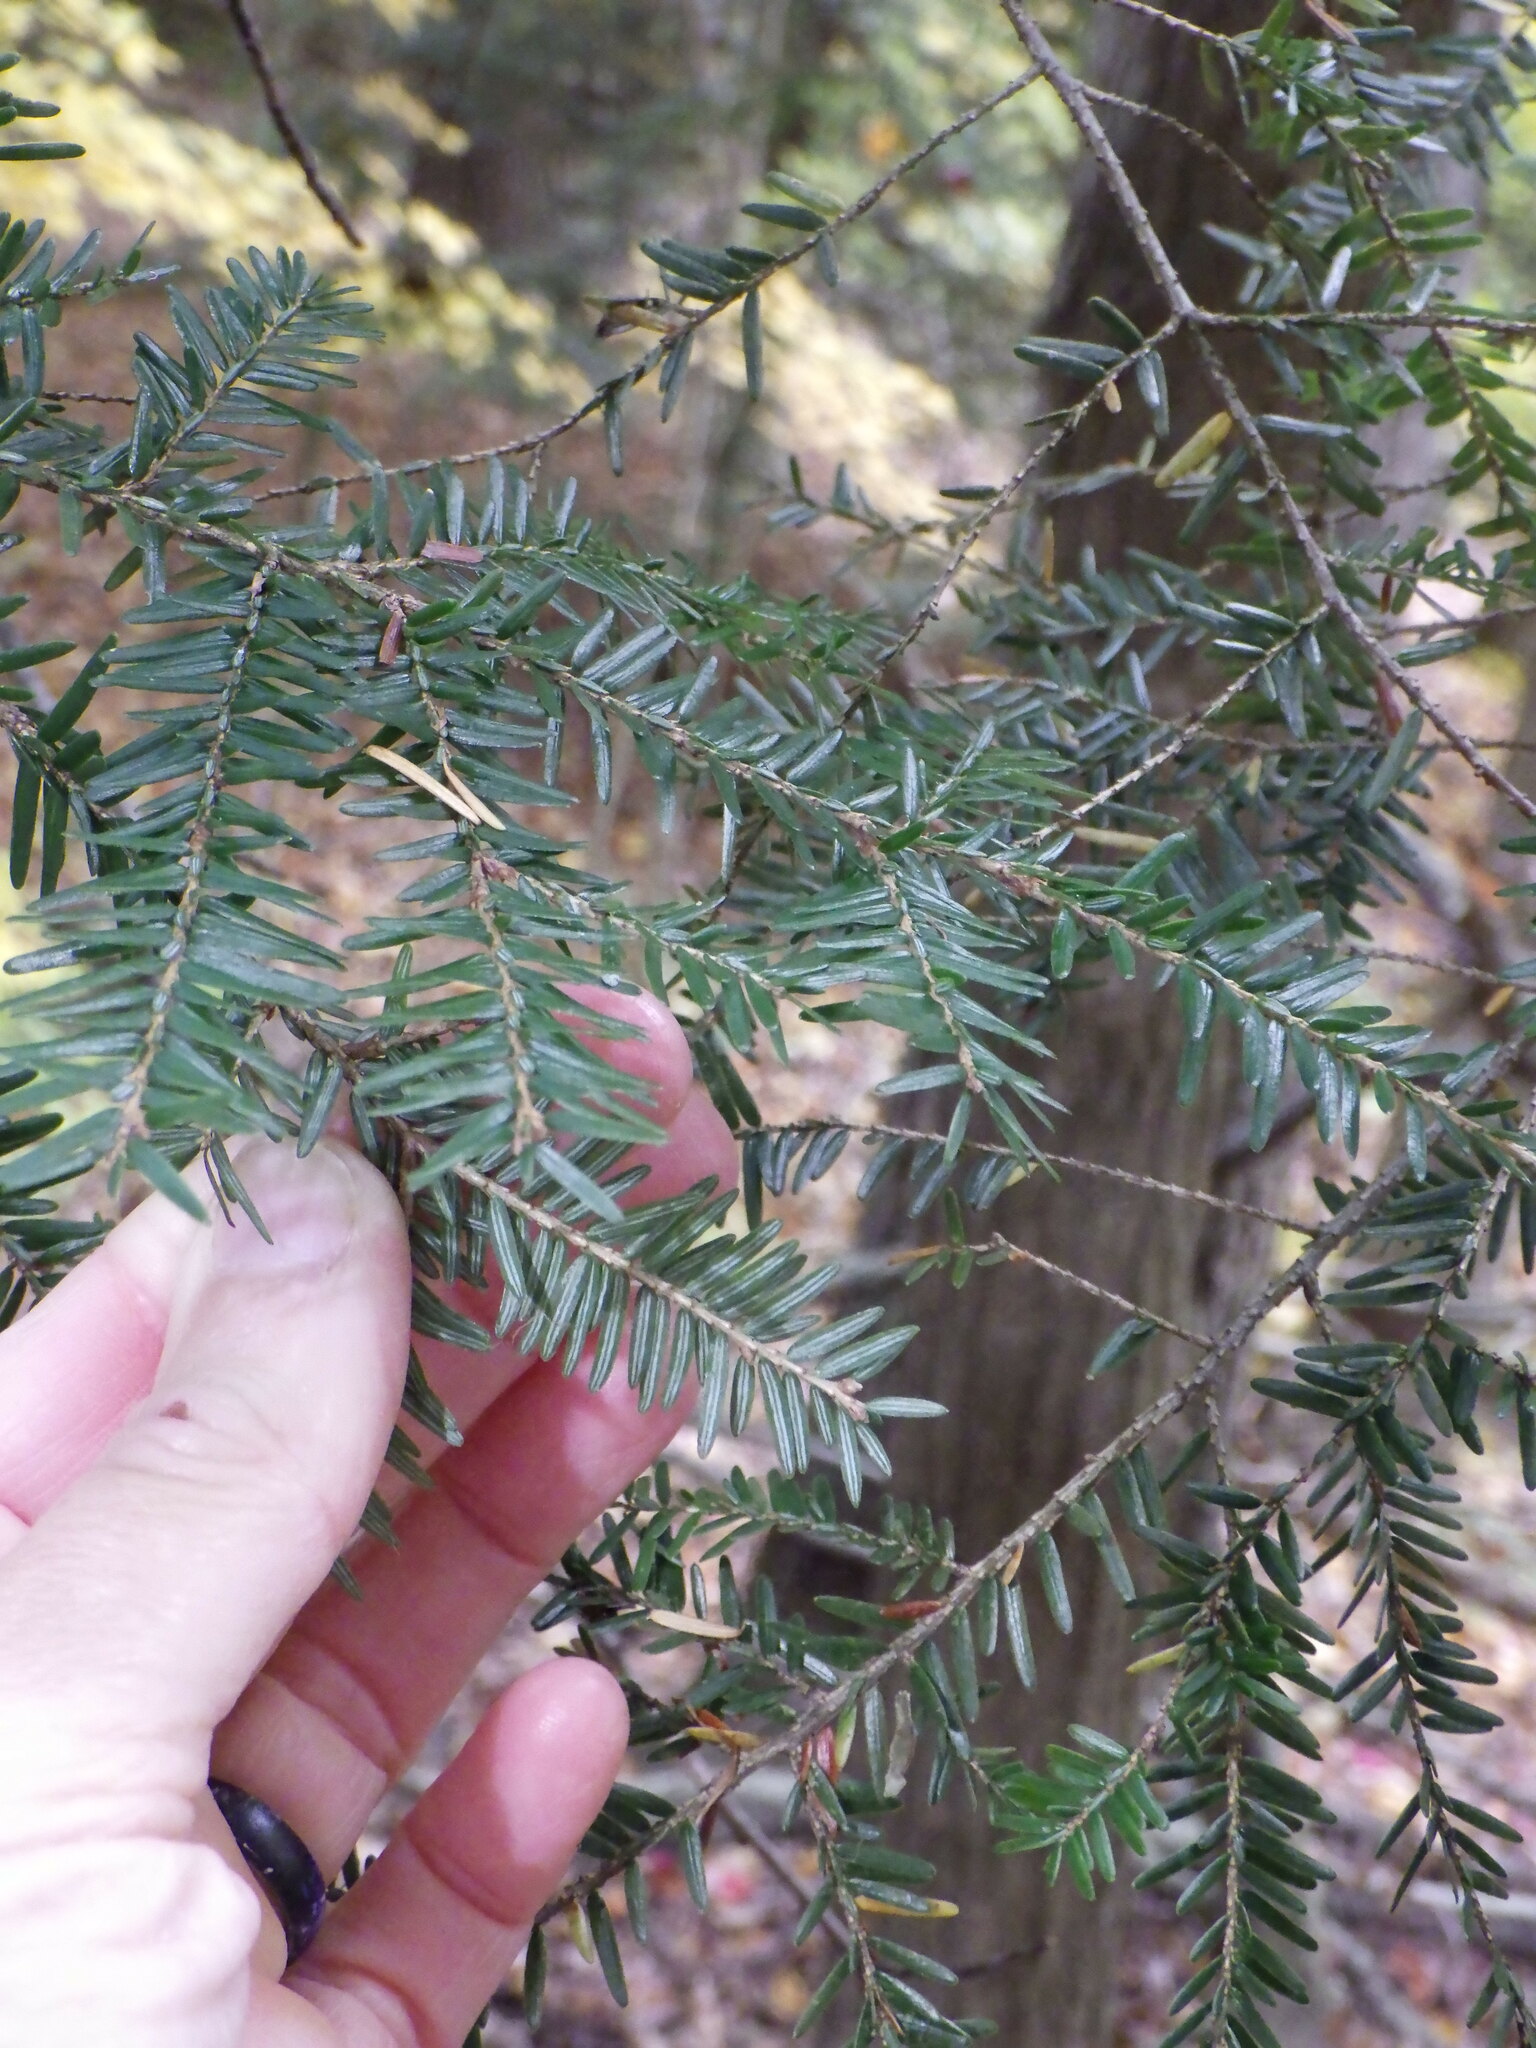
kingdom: Plantae
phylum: Tracheophyta
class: Pinopsida
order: Pinales
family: Pinaceae
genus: Tsuga
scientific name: Tsuga canadensis
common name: Eastern hemlock
